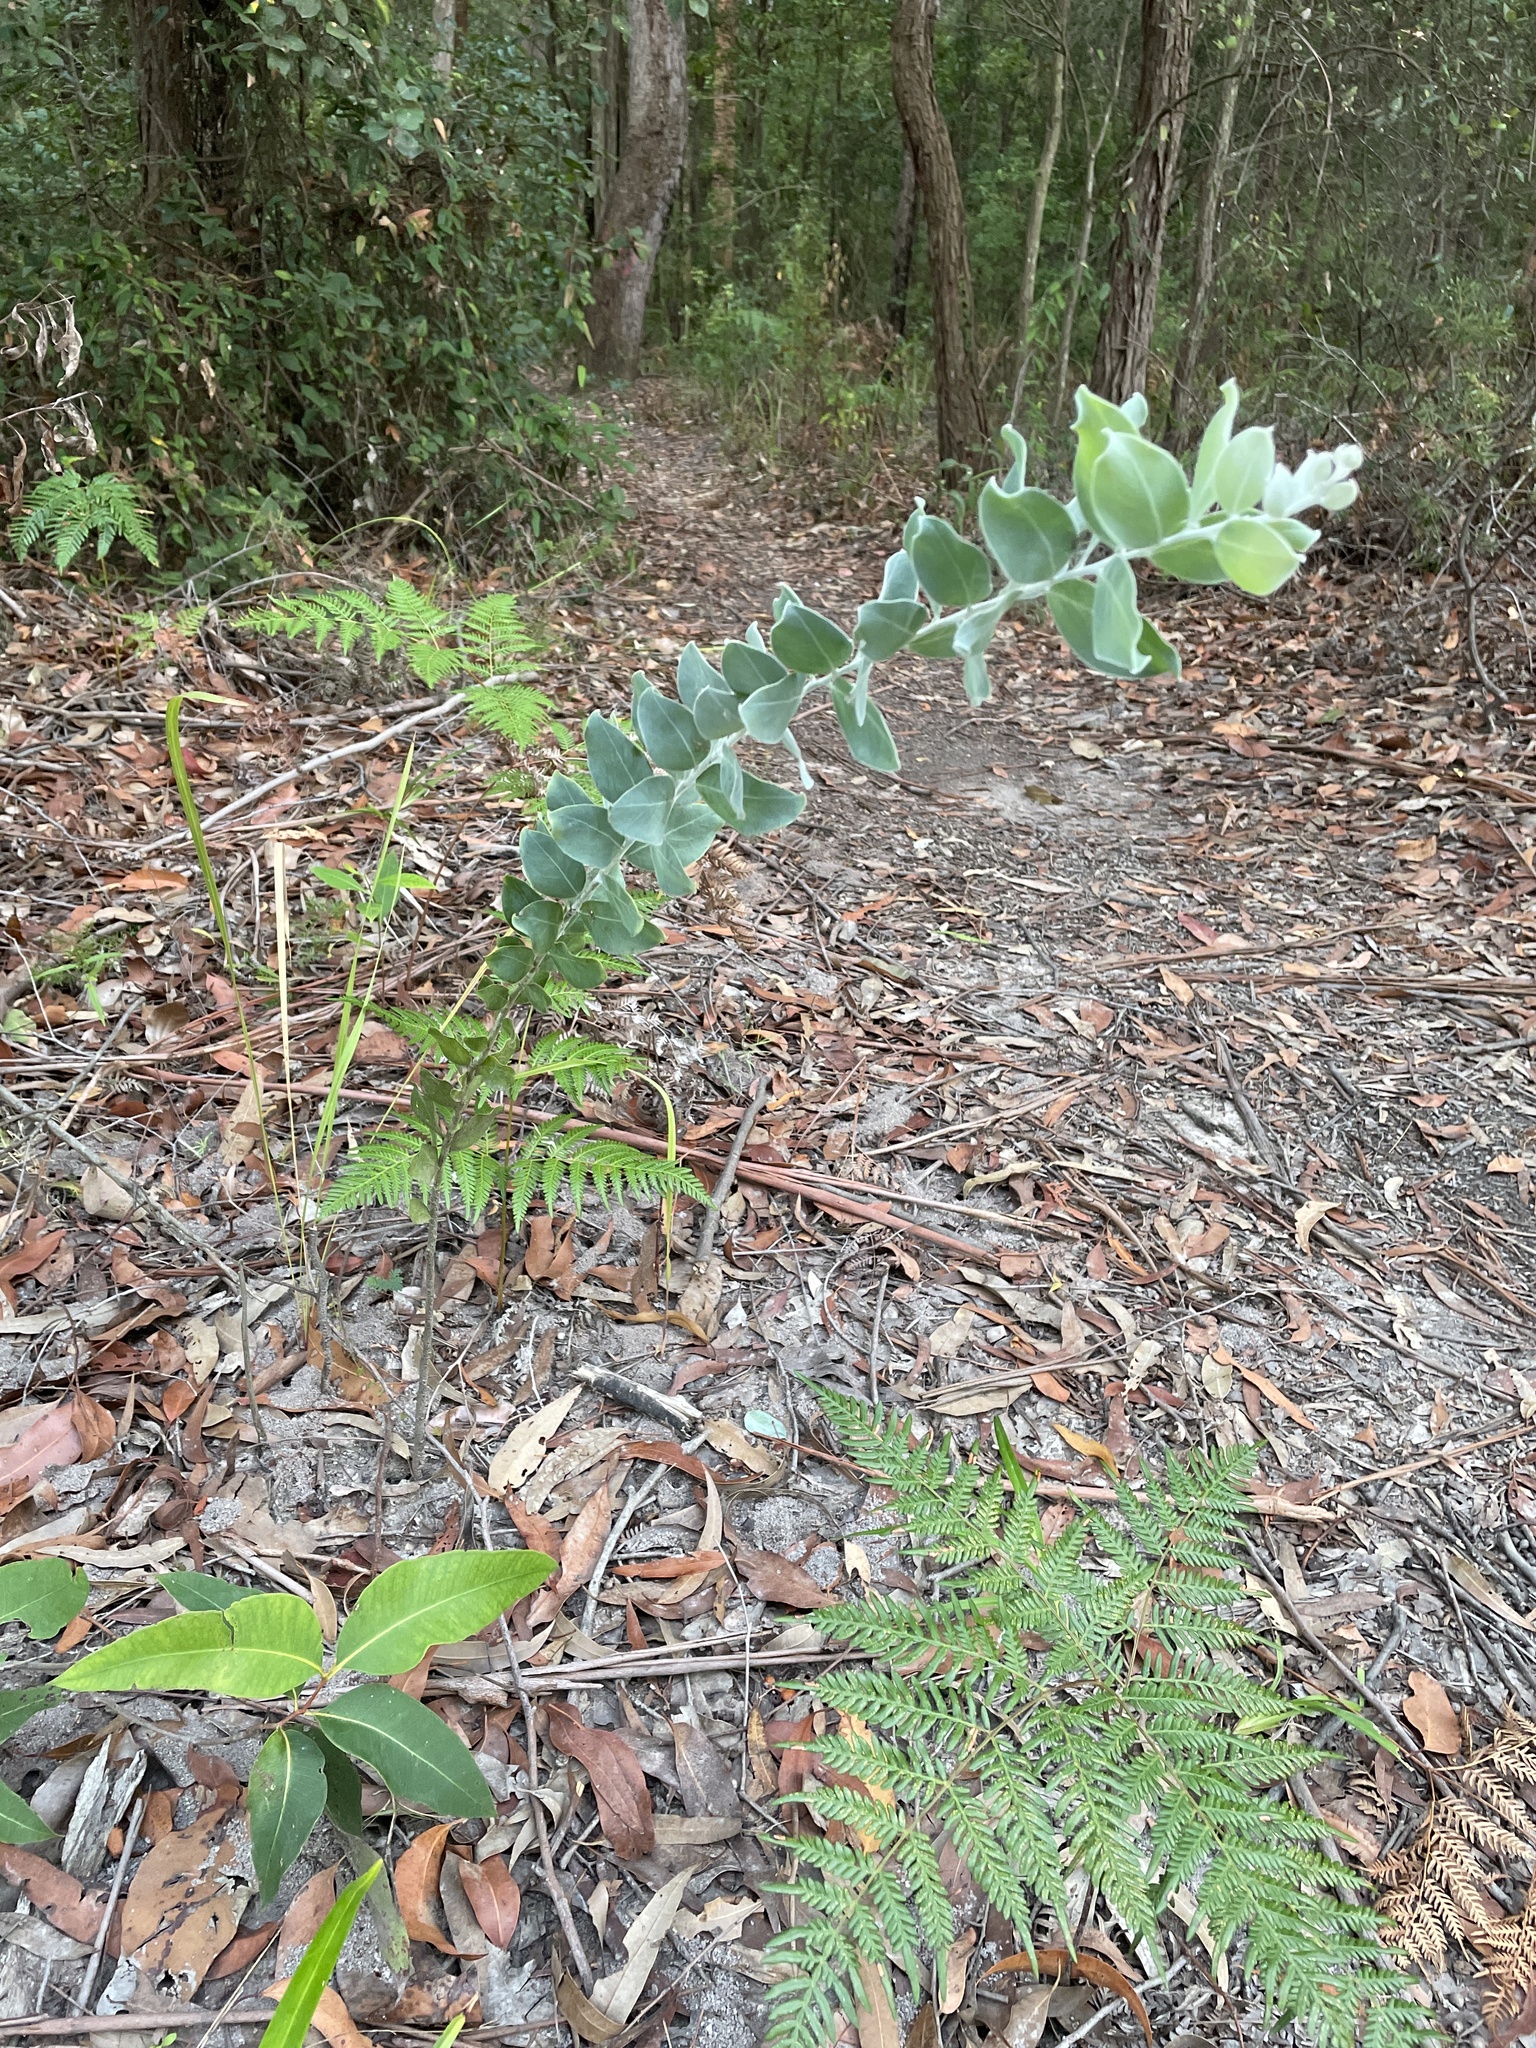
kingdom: Plantae
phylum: Tracheophyta
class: Magnoliopsida
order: Fabales
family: Fabaceae
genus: Acacia
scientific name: Acacia podalyriifolia
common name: Pearl wattle
